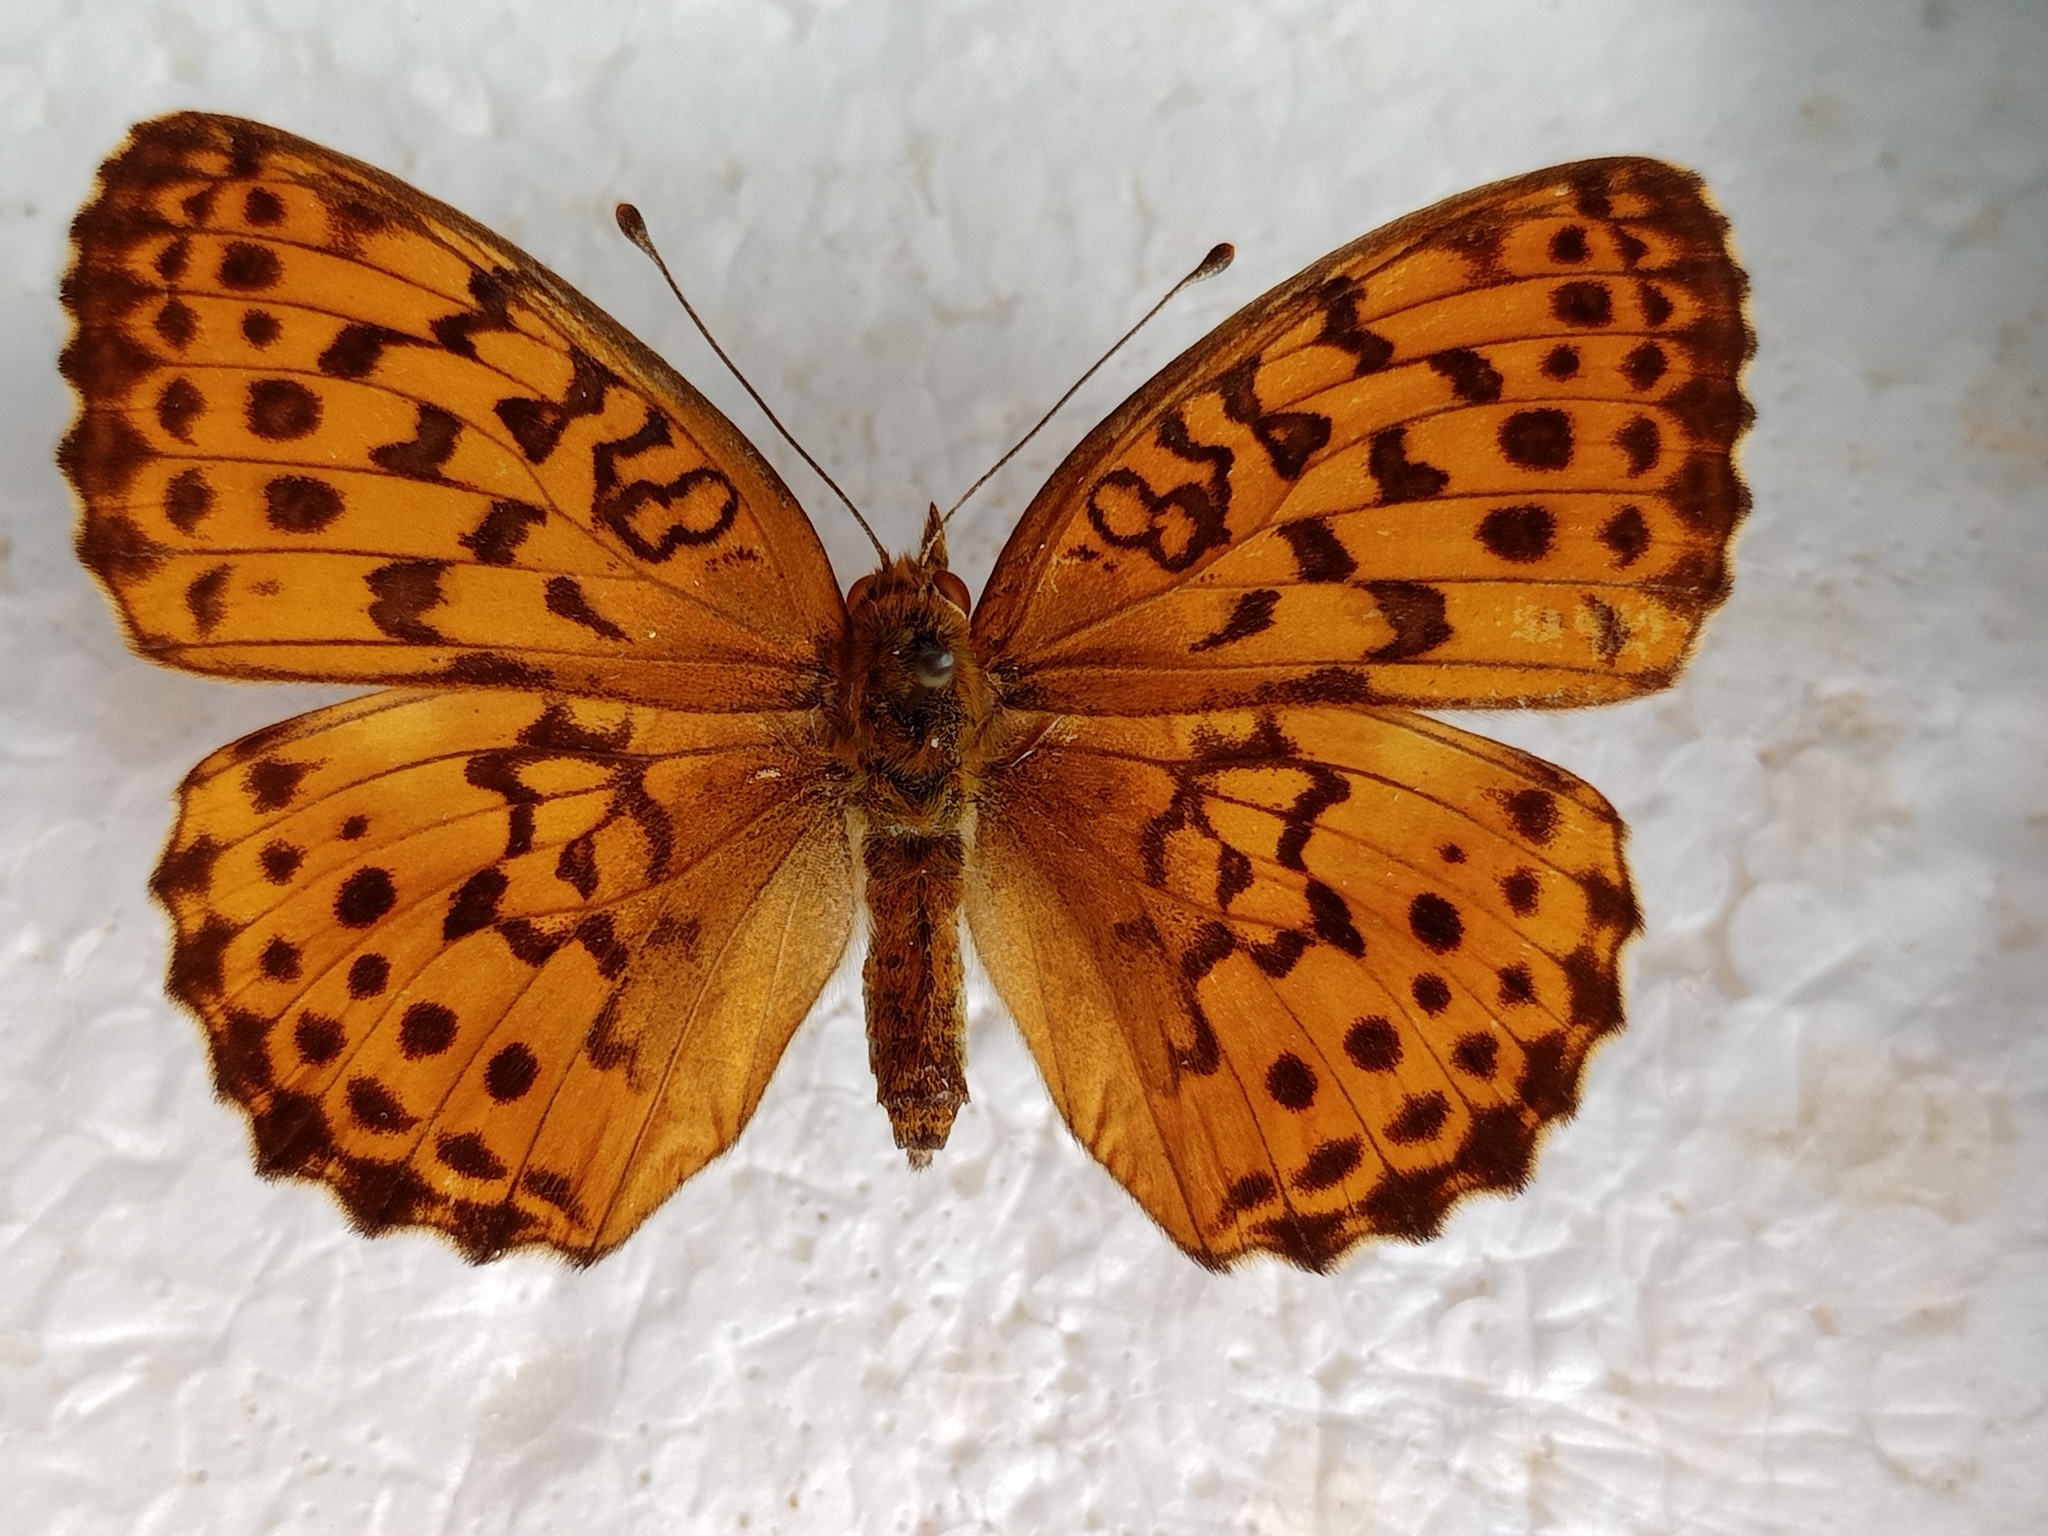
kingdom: Animalia
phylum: Arthropoda
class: Insecta
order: Lepidoptera
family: Nymphalidae
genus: Brenthis
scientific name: Brenthis daphne
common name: Marbled fritillary
